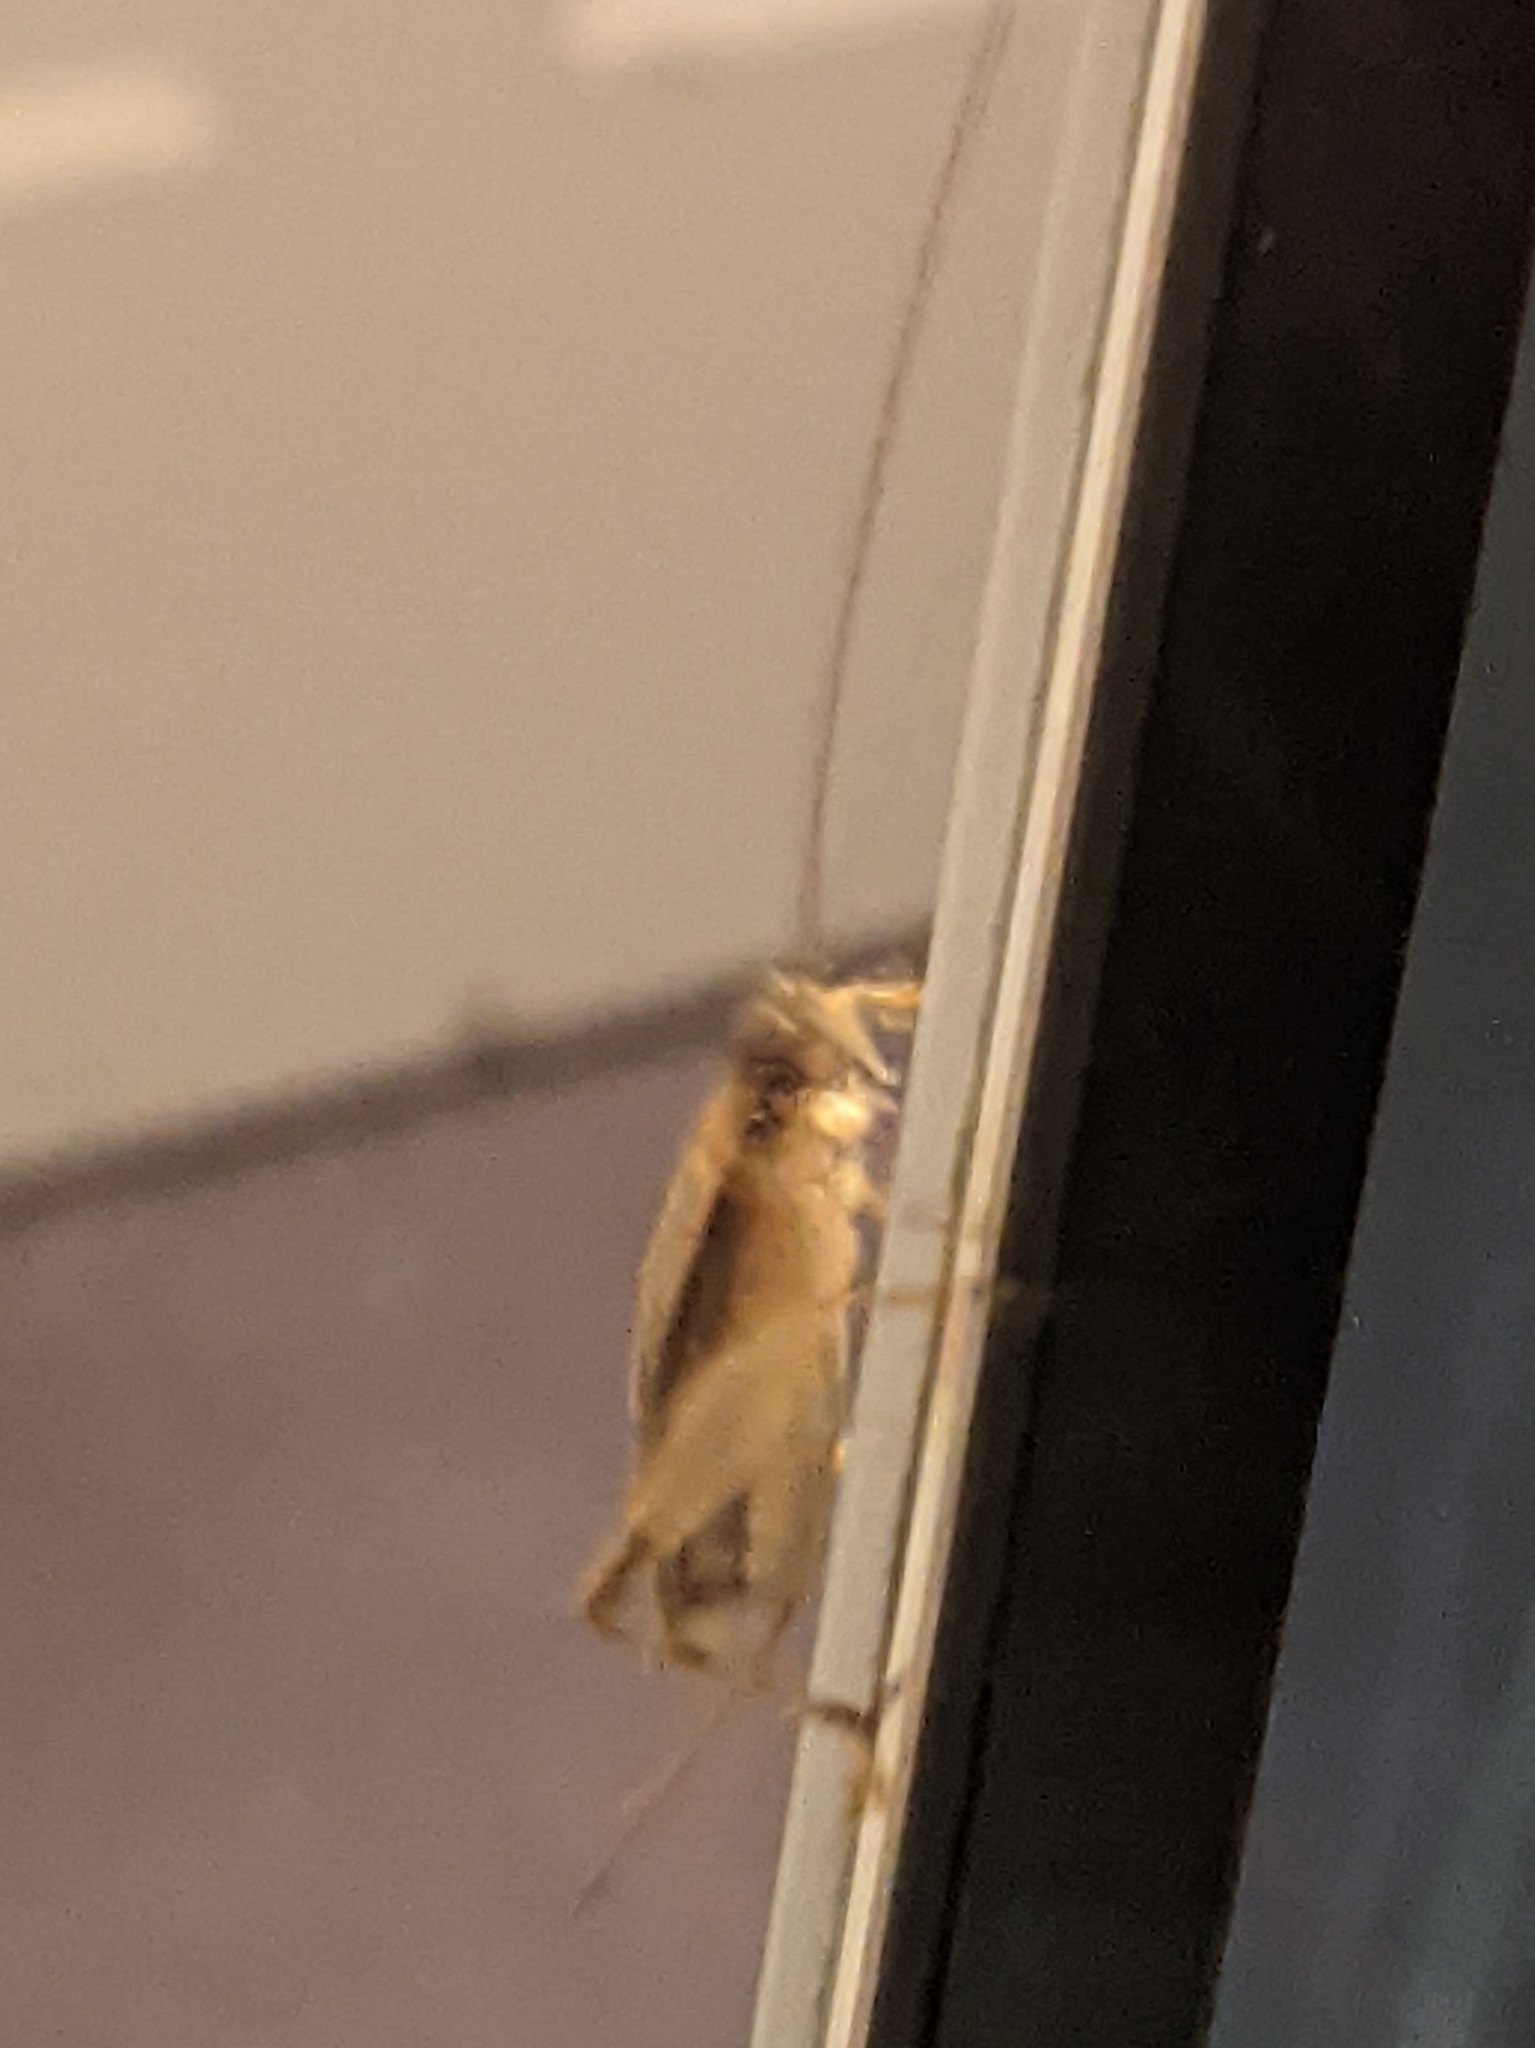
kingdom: Animalia
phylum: Arthropoda
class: Insecta
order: Orthoptera
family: Gryllidae
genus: Hapithus
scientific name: Hapithus saltator
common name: Jumping bush cricket
